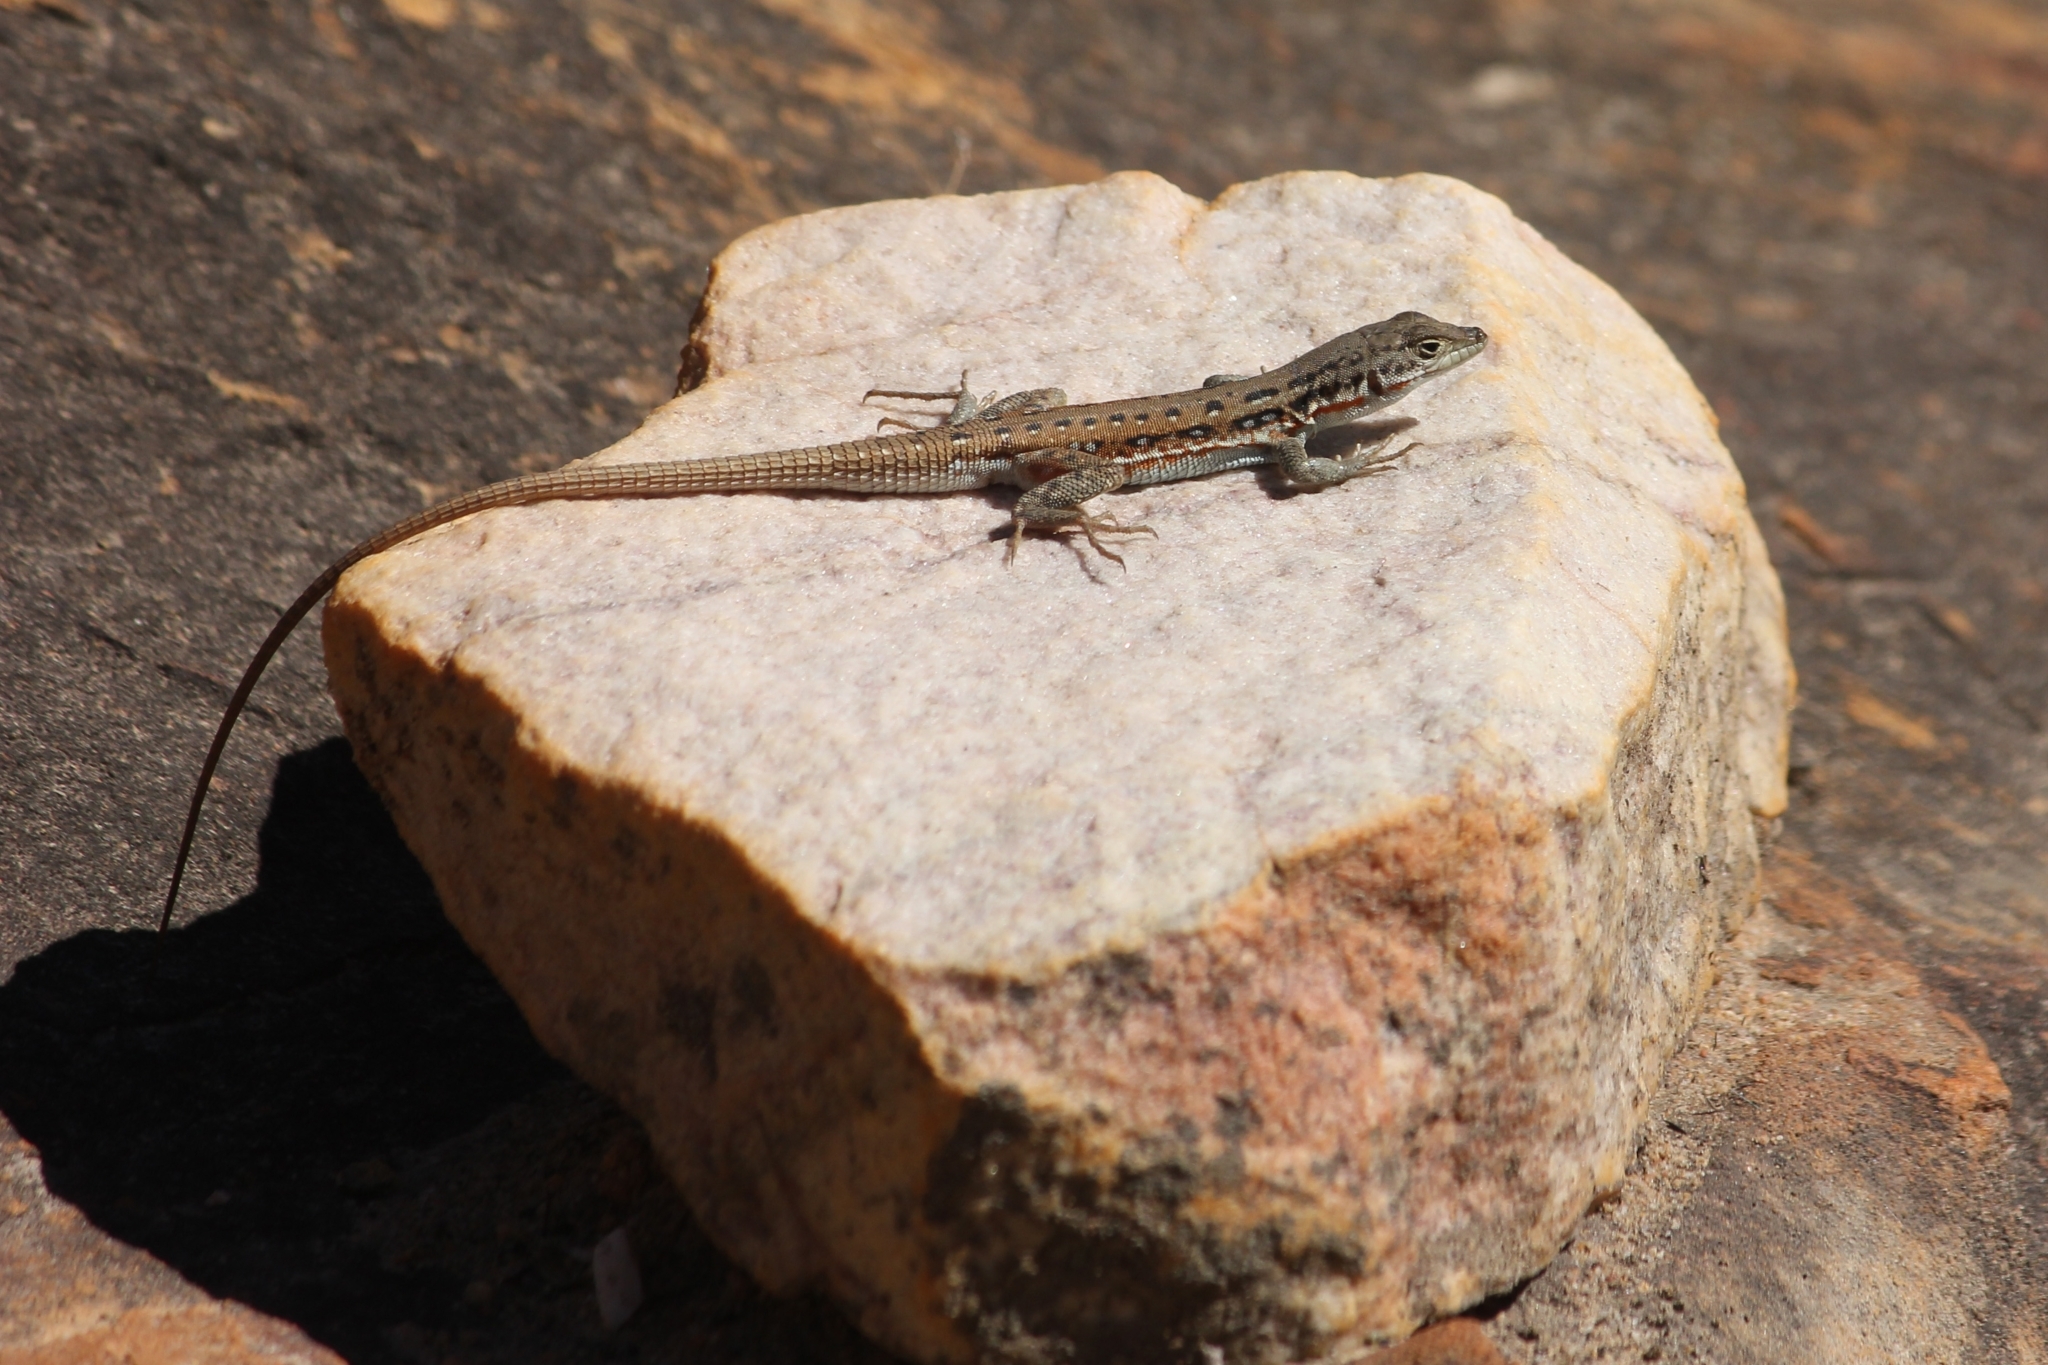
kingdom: Animalia
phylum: Chordata
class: Squamata
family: Lacertidae
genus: Pedioplanis
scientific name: Pedioplanis lineoocellata
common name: Spotted sand lizard
